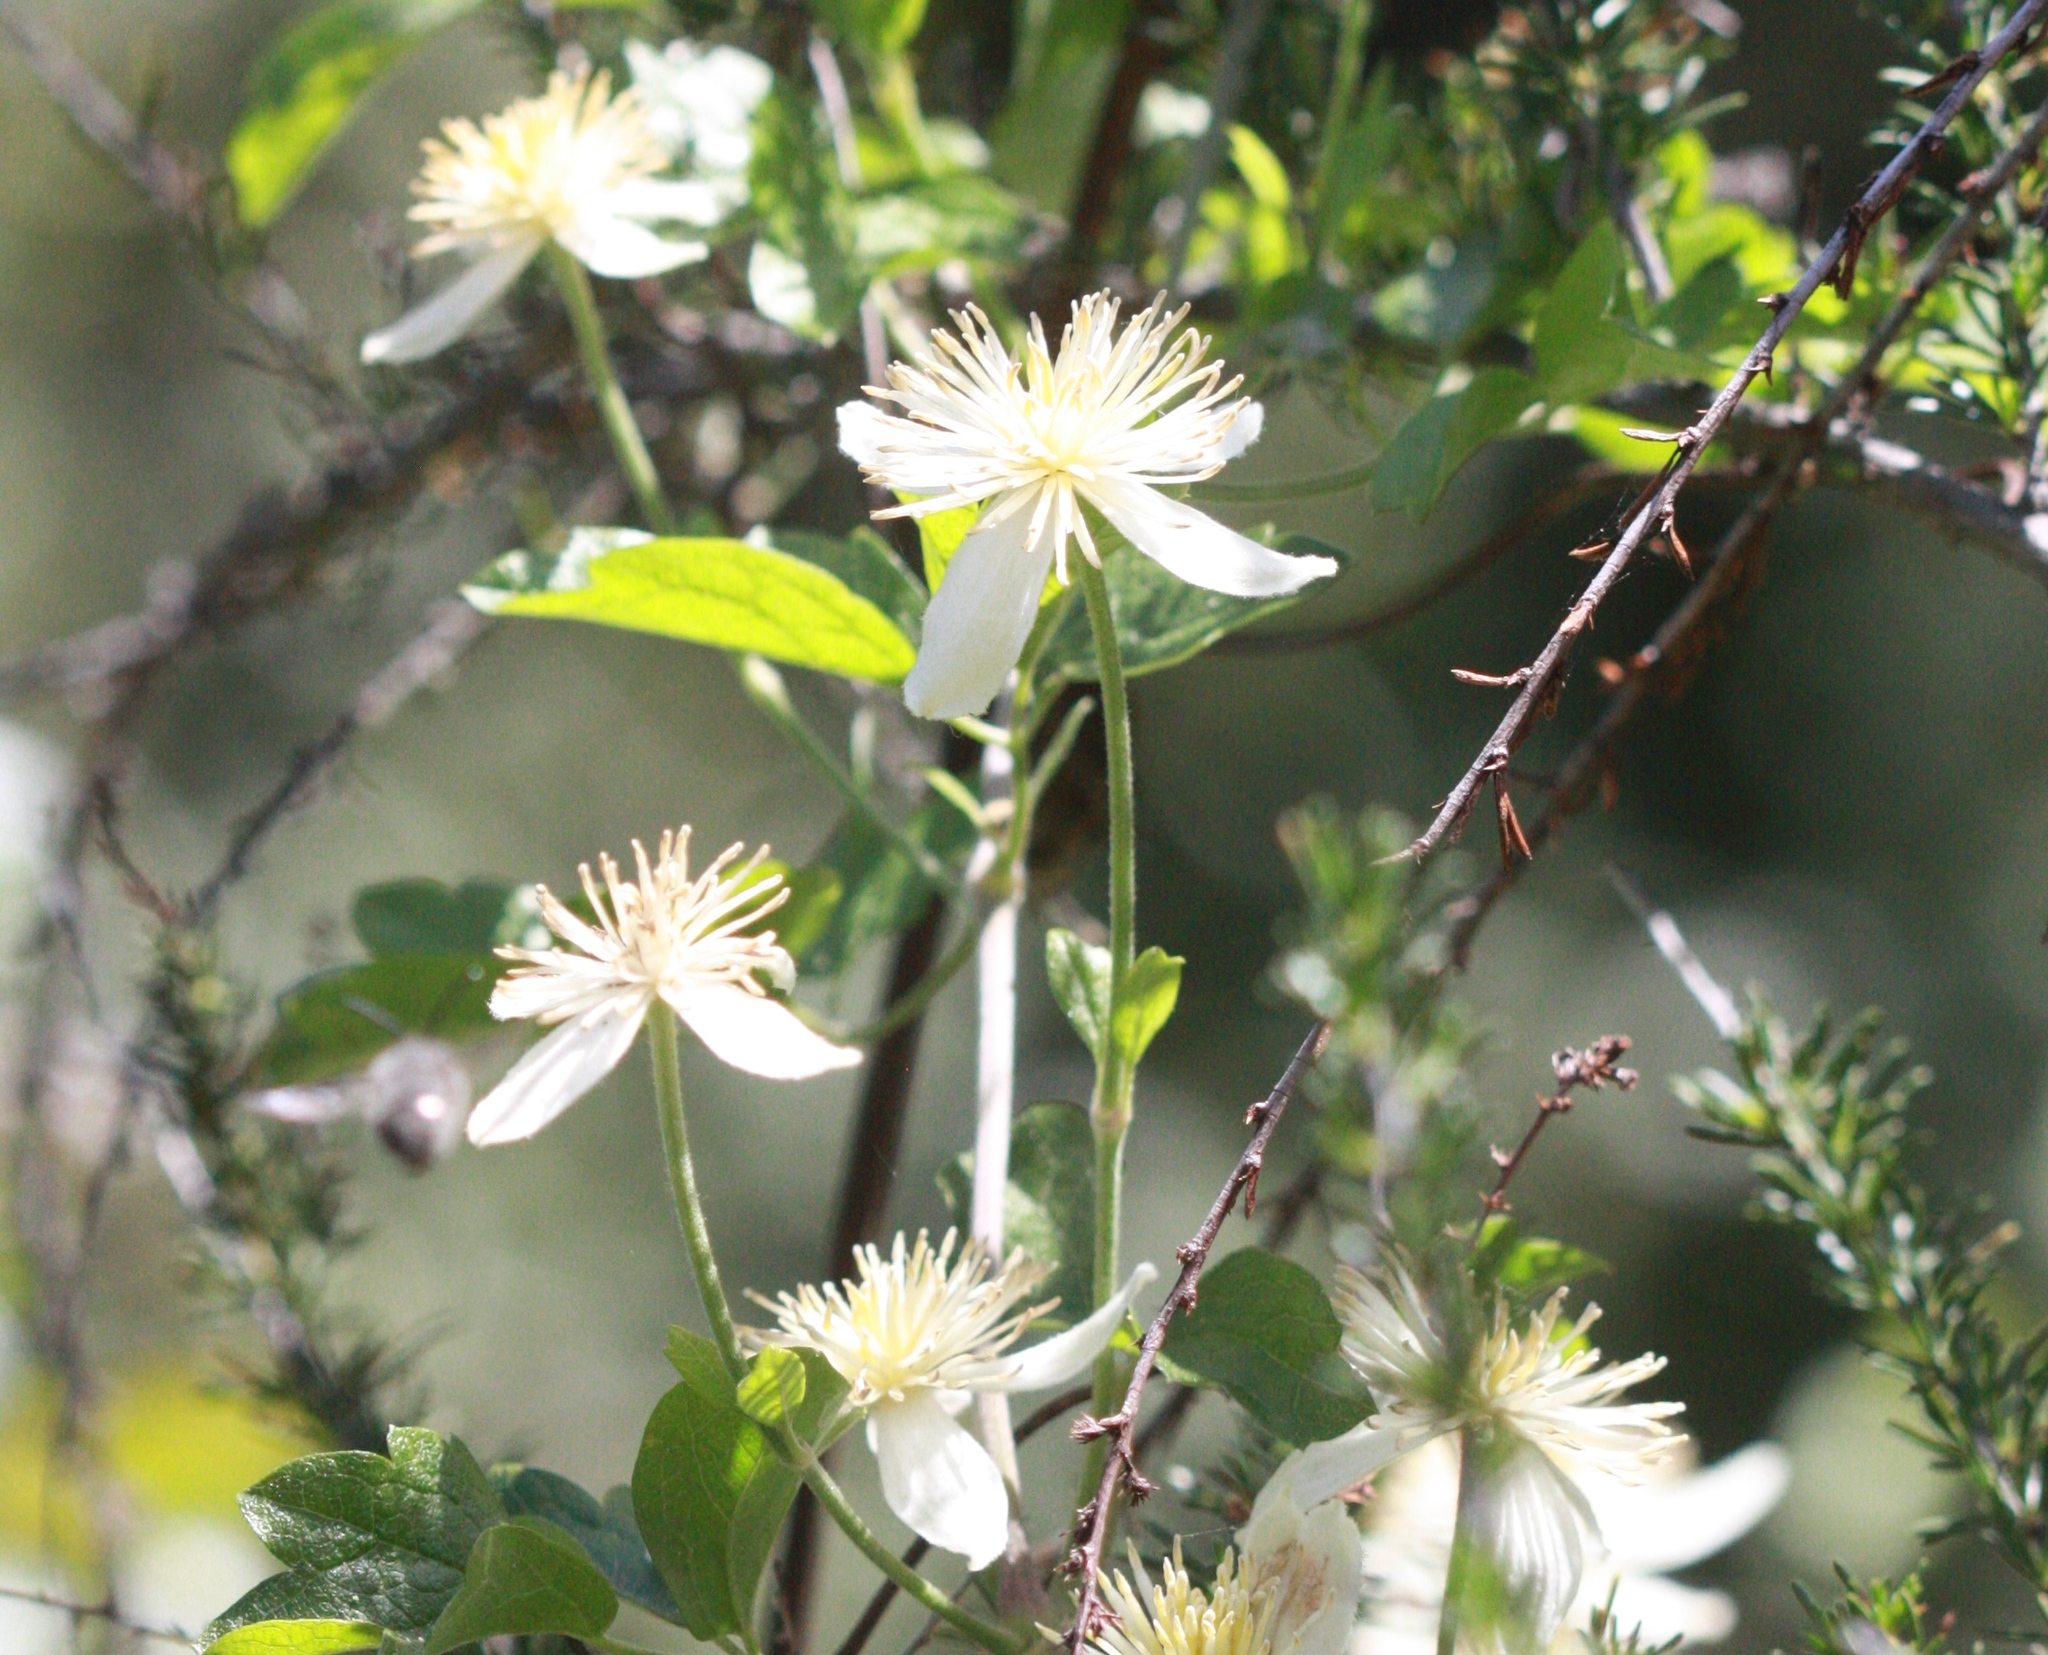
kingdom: Plantae
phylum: Tracheophyta
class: Magnoliopsida
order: Ranunculales
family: Ranunculaceae
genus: Clematis
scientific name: Clematis lasiantha
